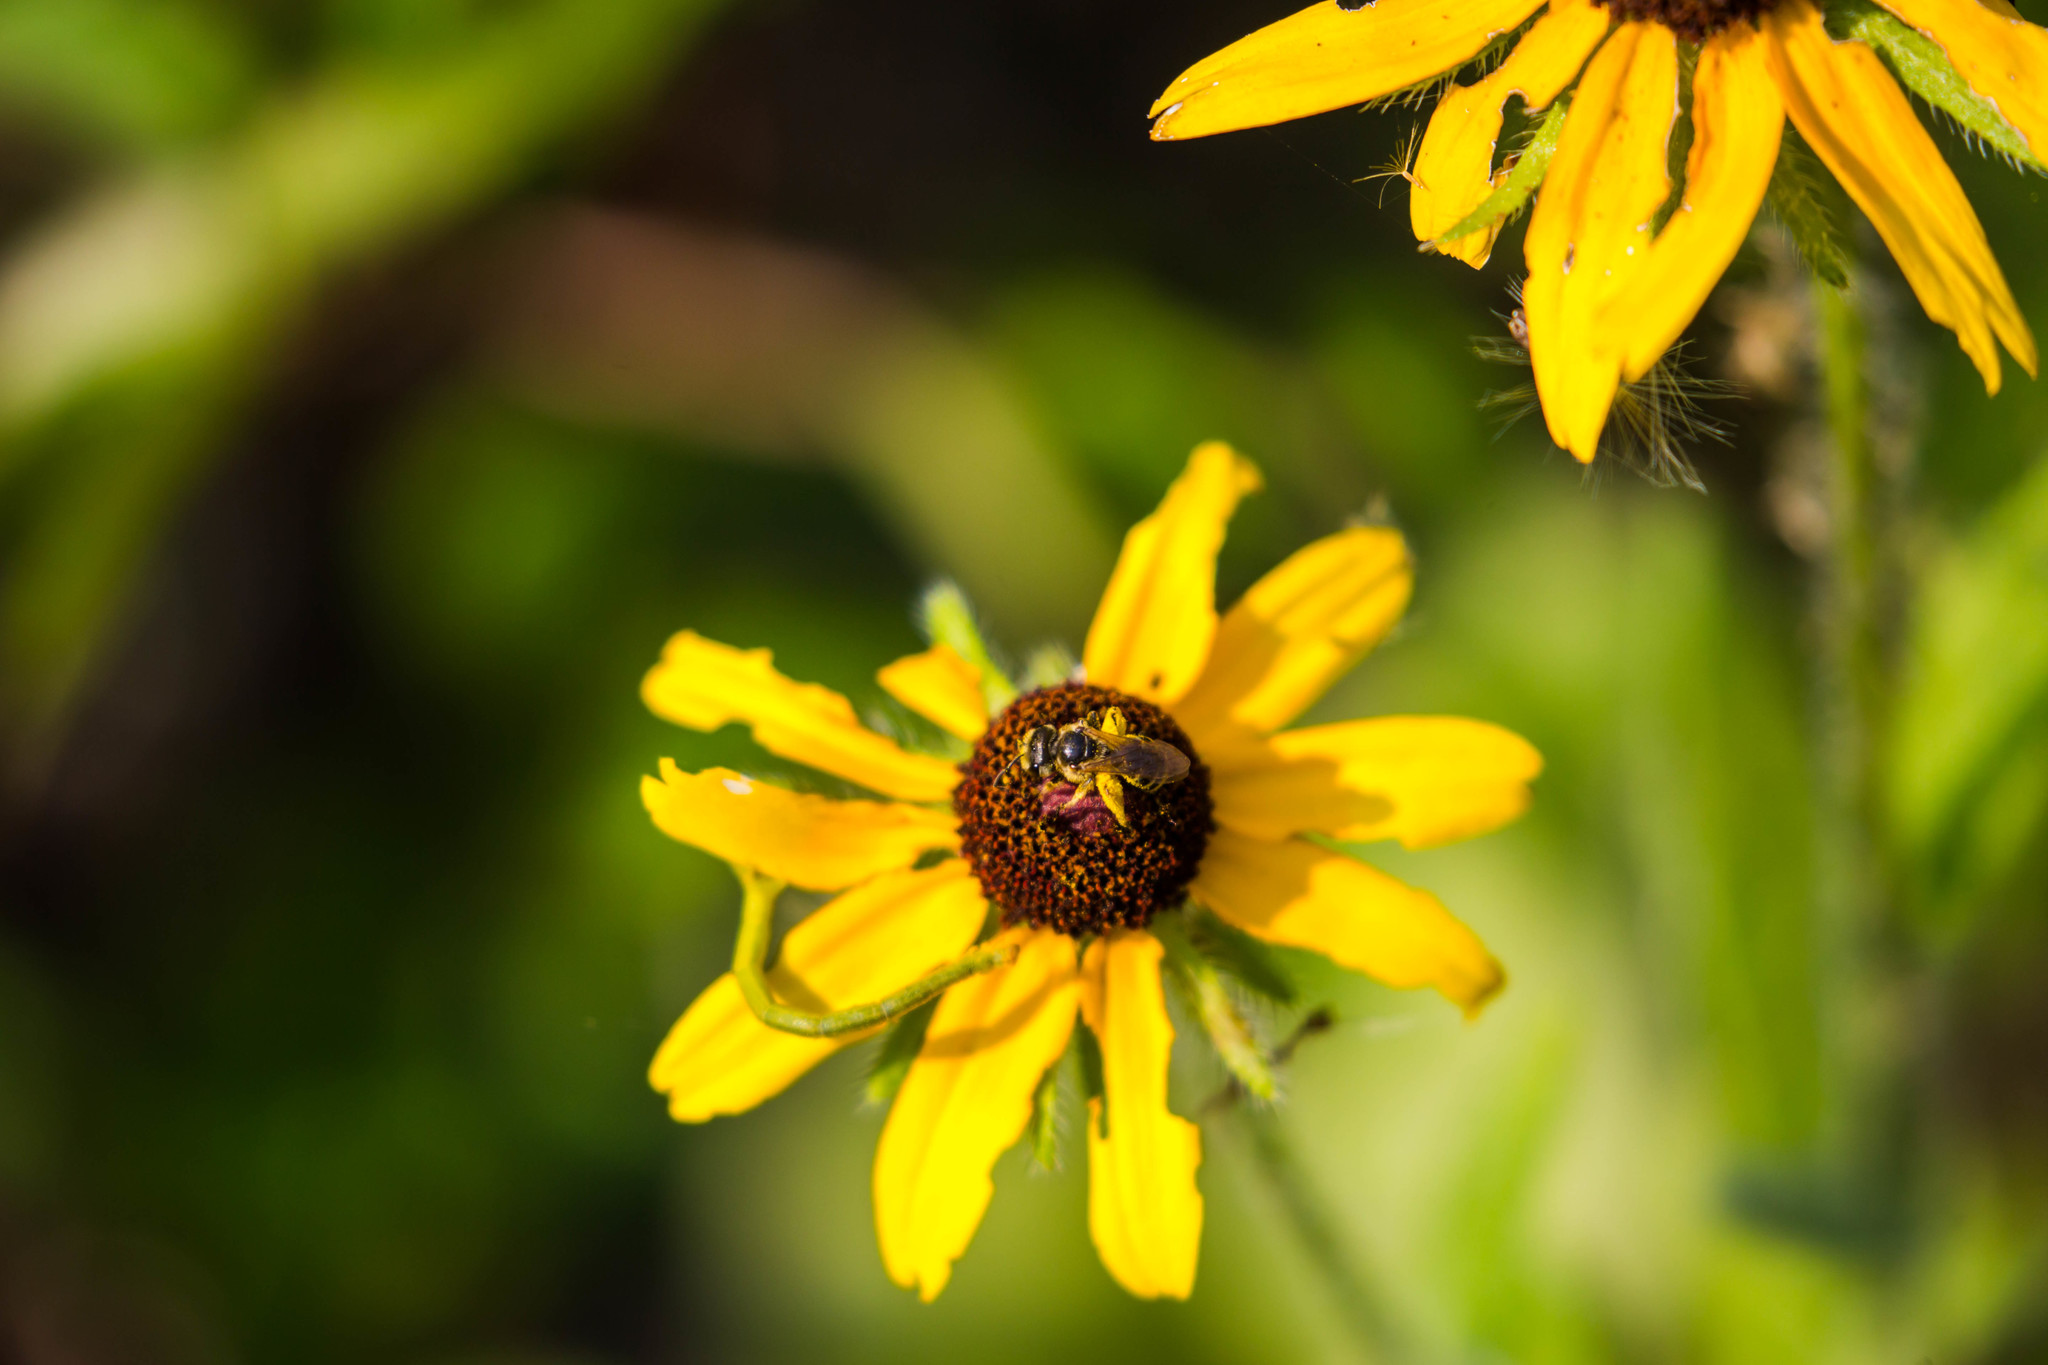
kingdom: Animalia
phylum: Arthropoda
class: Insecta
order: Hymenoptera
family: Halictidae
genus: Halictus
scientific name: Halictus ligatus
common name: Ligated furrow bee
